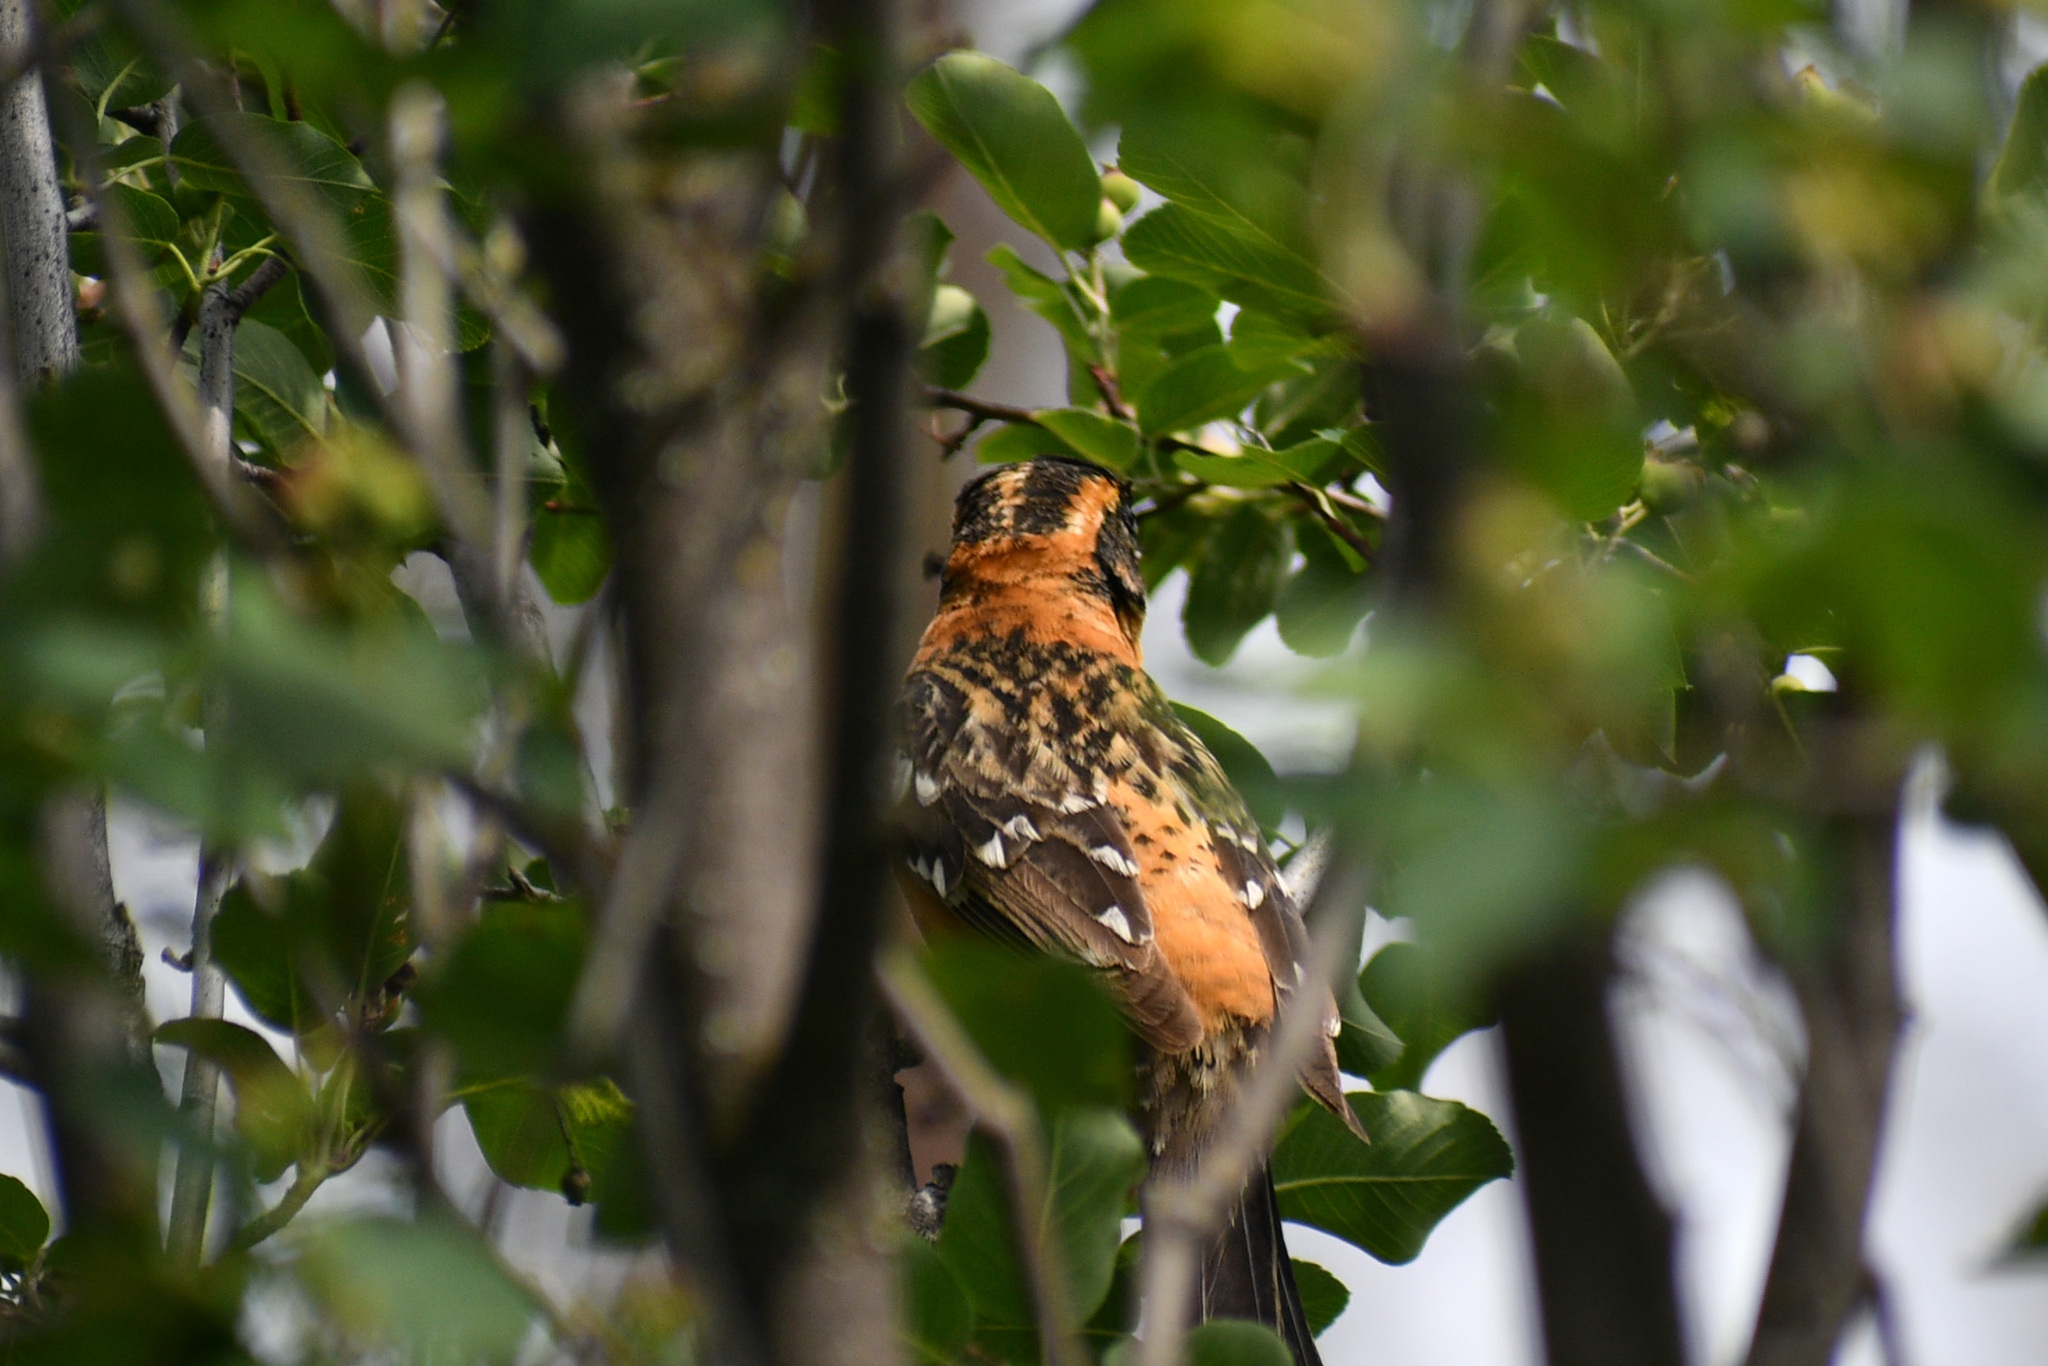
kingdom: Animalia
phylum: Chordata
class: Aves
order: Passeriformes
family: Cardinalidae
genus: Pheucticus
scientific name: Pheucticus melanocephalus
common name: Black-headed grosbeak
